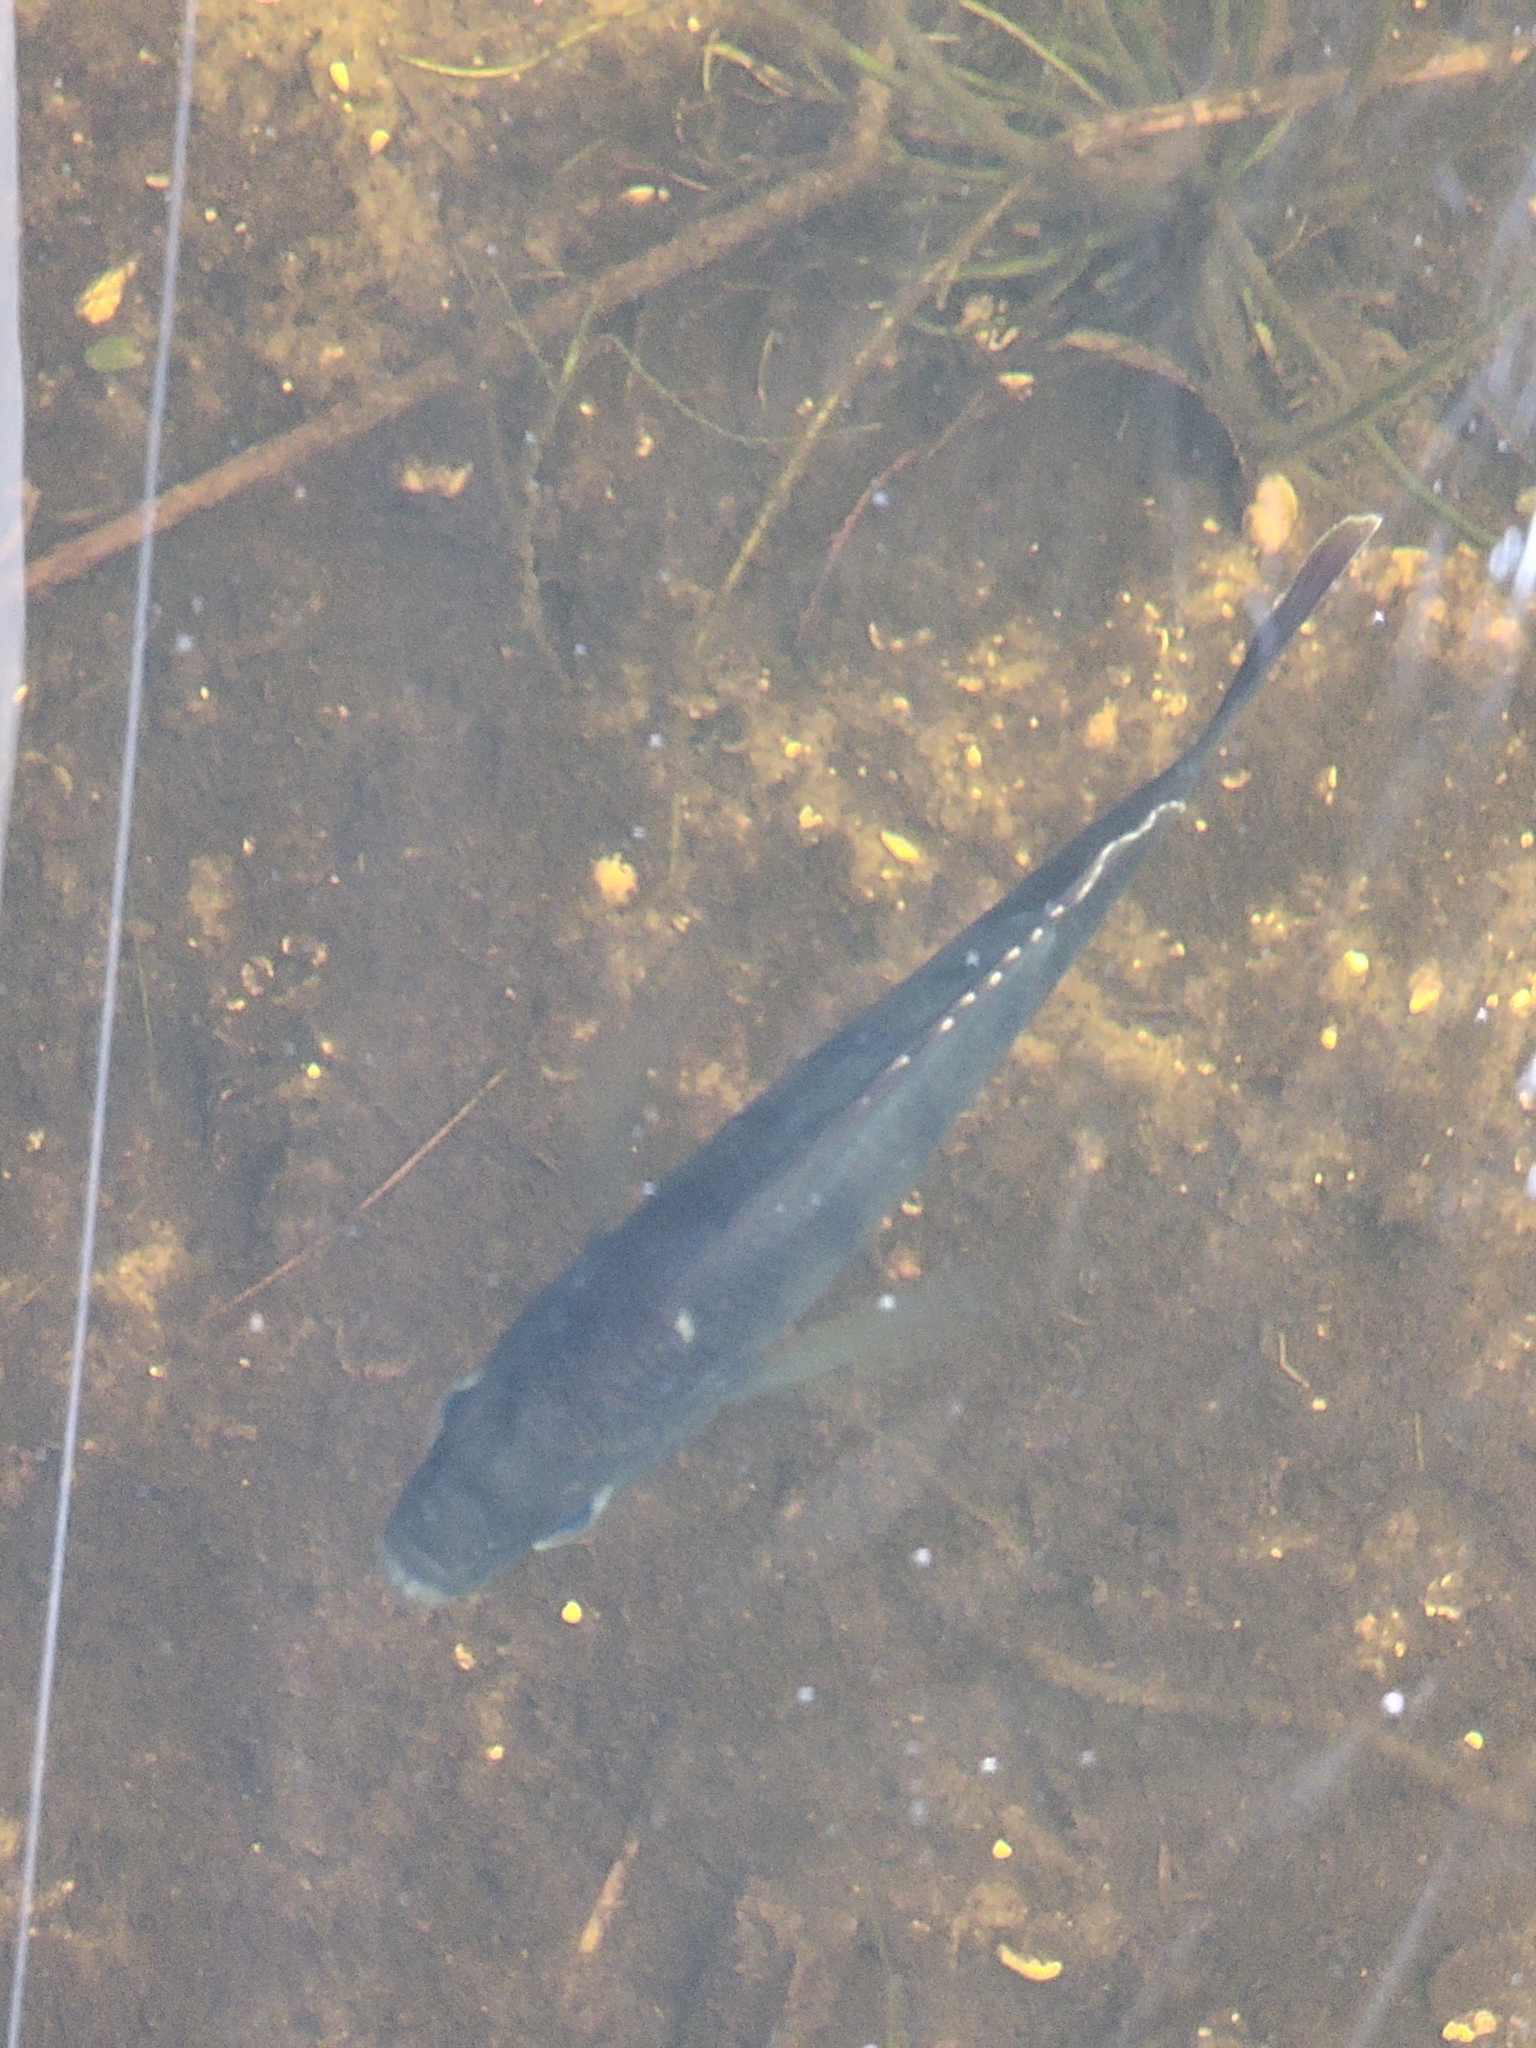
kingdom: Animalia
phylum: Chordata
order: Perciformes
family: Centrarchidae
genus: Lepomis
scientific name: Lepomis macrochirus
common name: Bluegill
